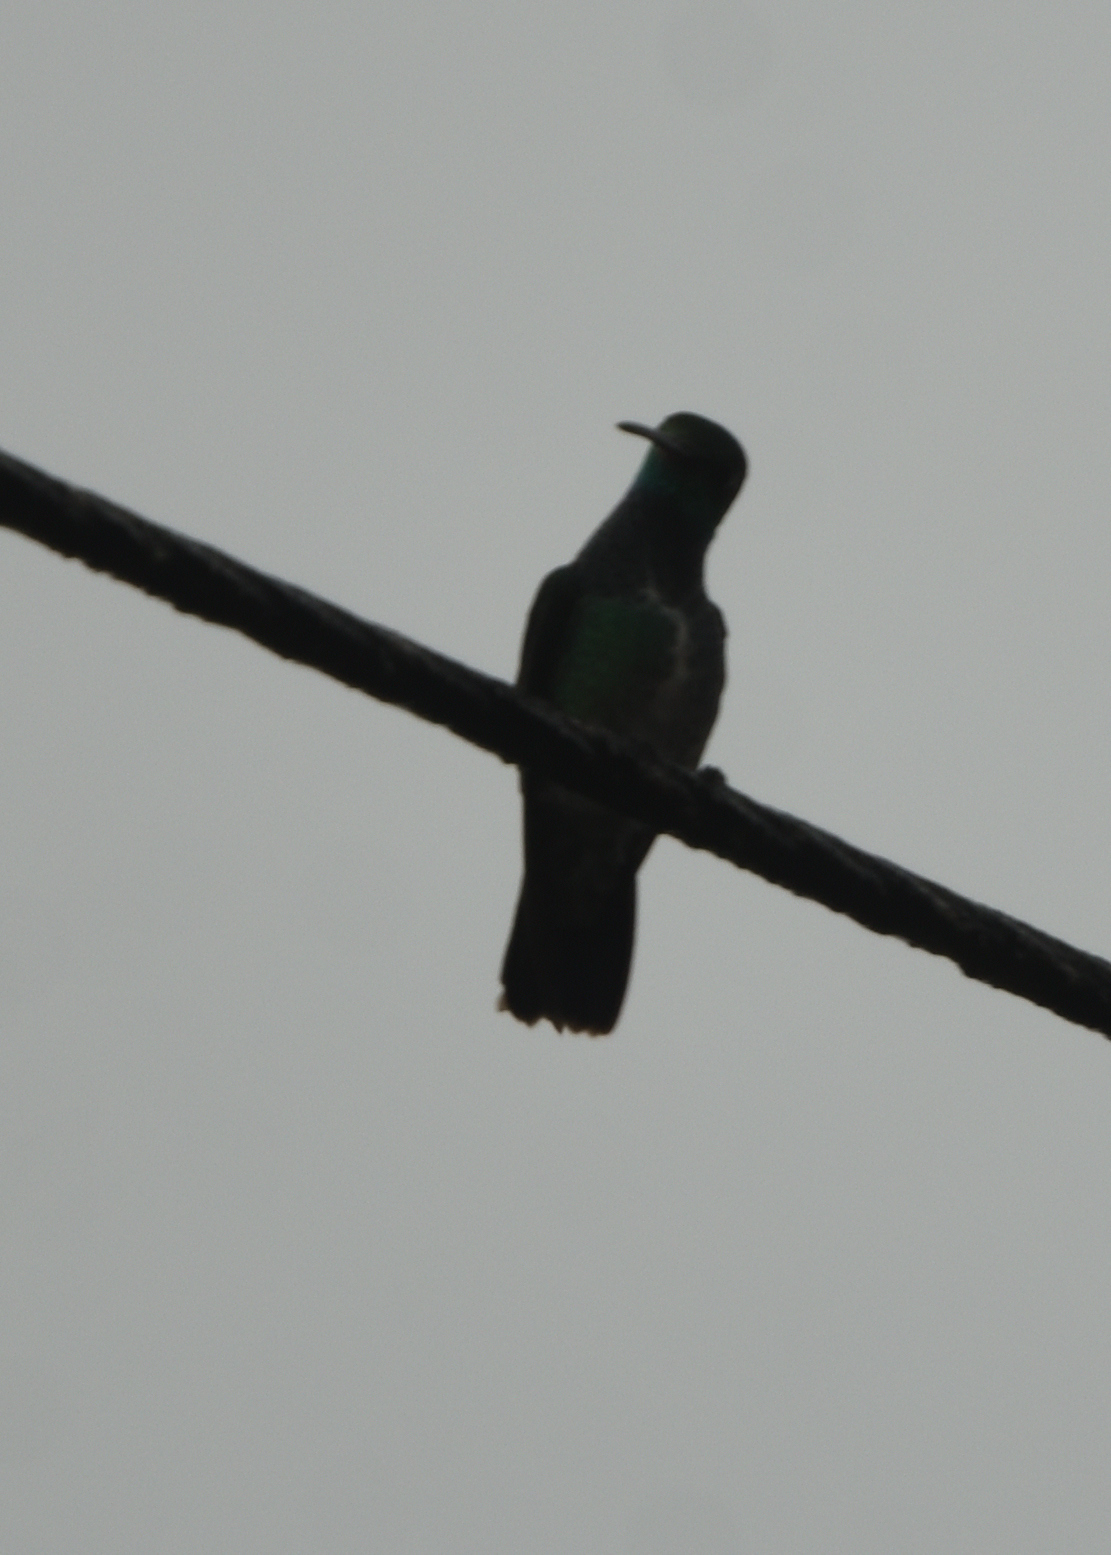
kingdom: Animalia
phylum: Chordata
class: Aves
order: Apodiformes
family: Trochilidae
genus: Chionomesa
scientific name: Chionomesa fimbriata
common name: Glittering-throated emerald
